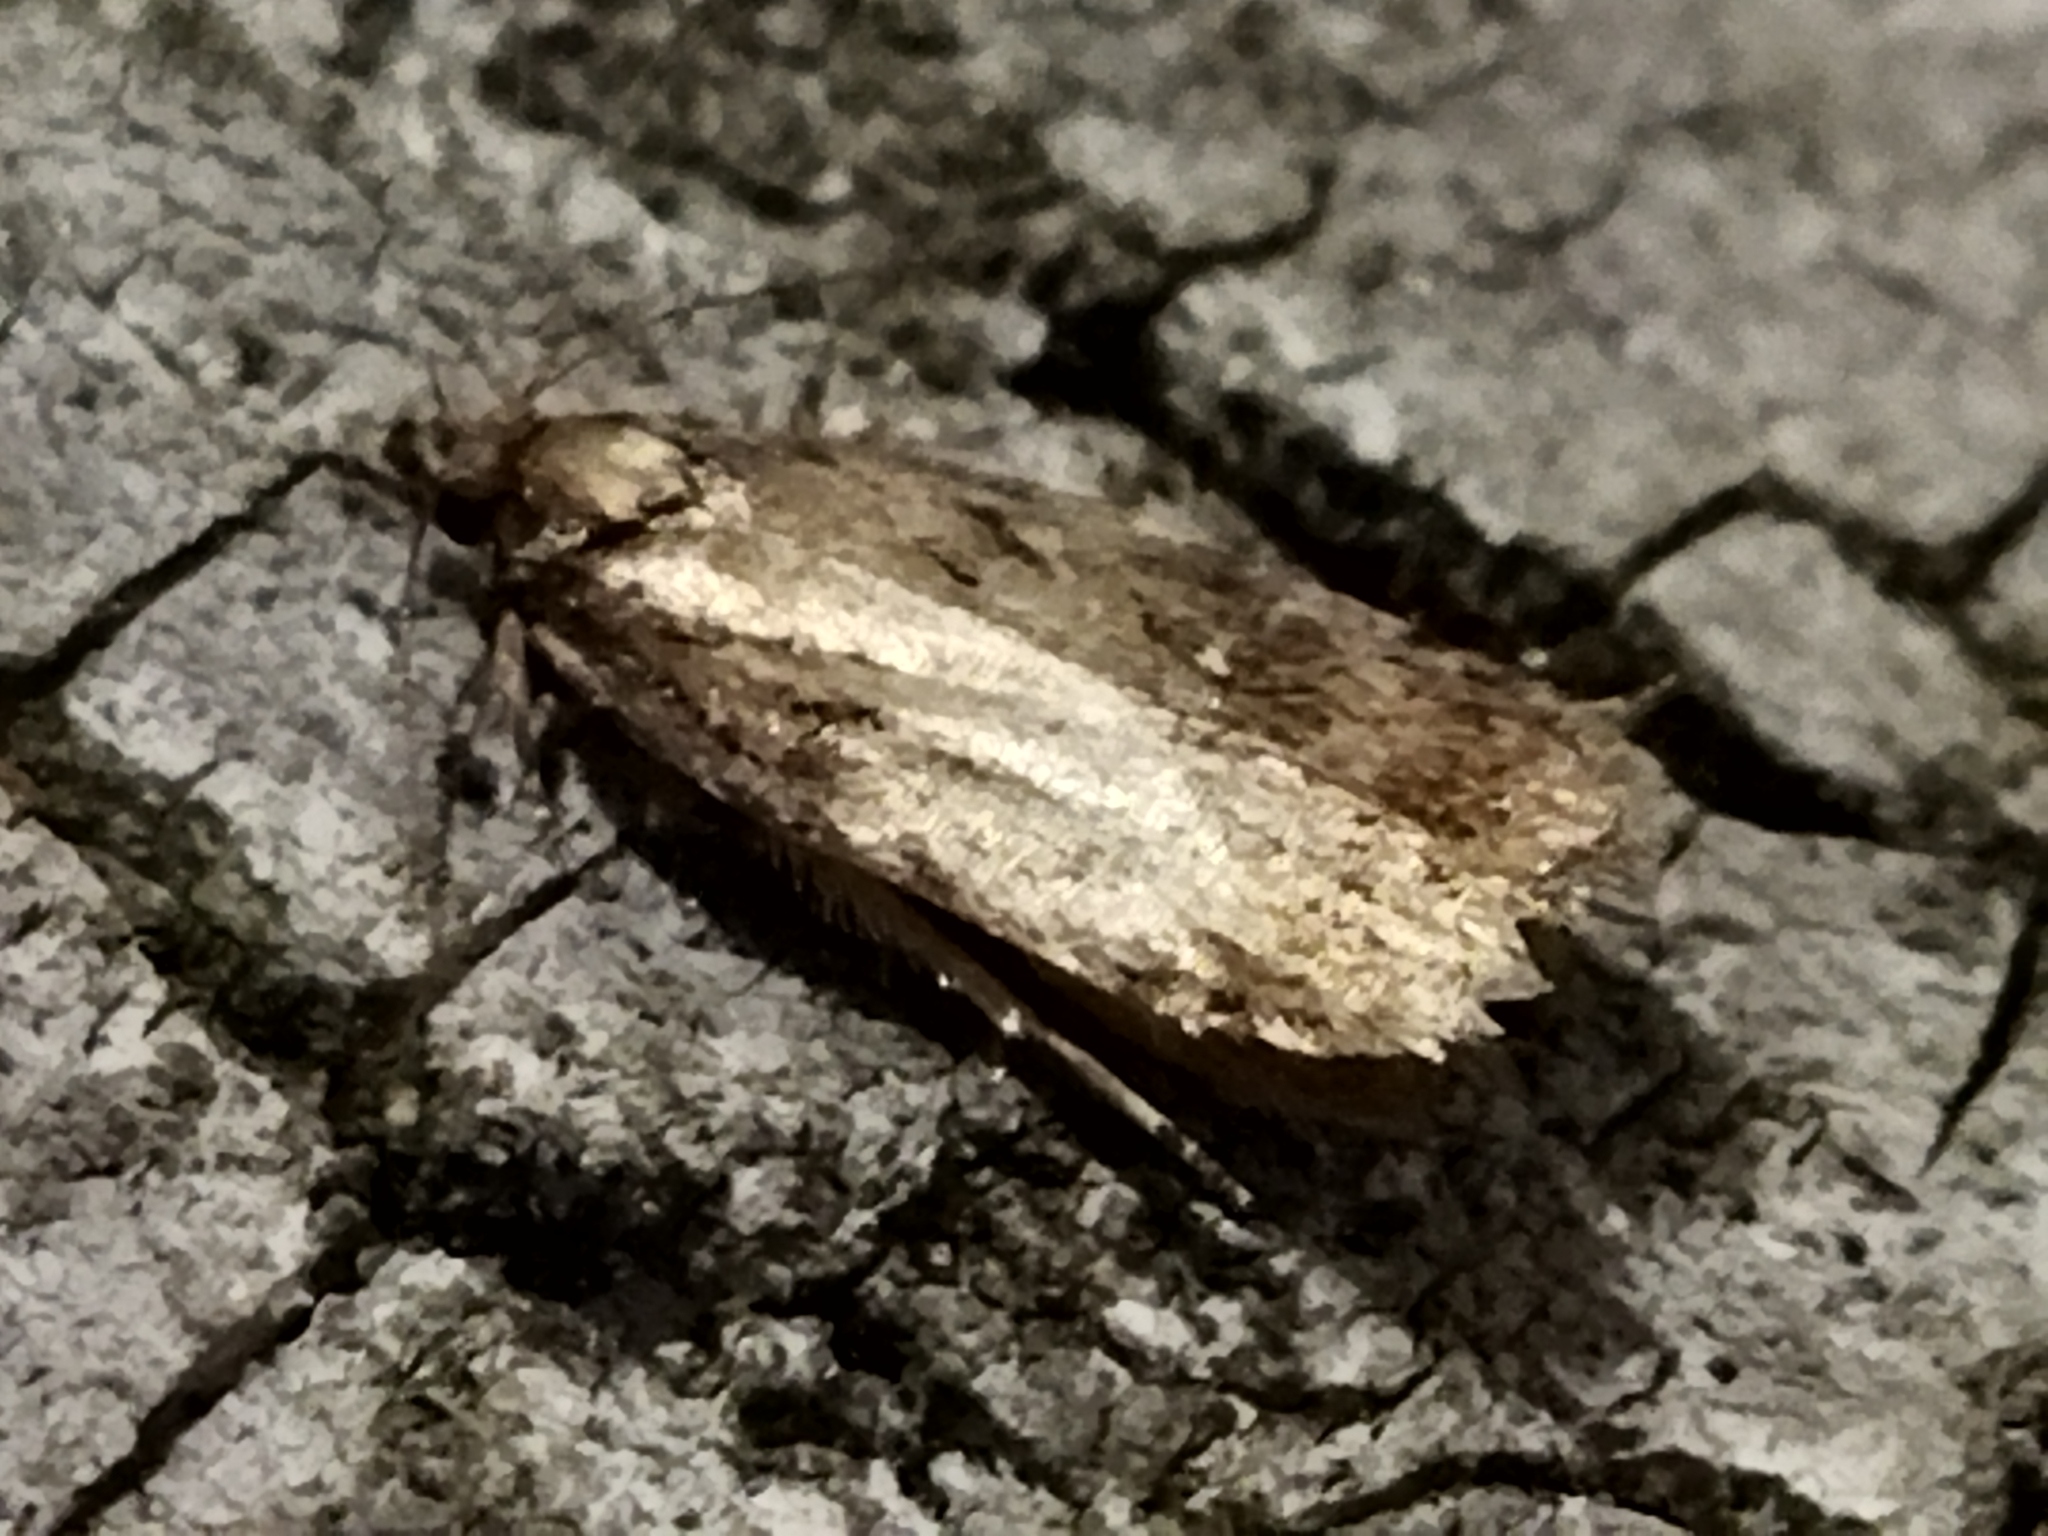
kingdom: Animalia
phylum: Arthropoda
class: Insecta
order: Lepidoptera
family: Depressariidae
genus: Depressaria
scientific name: Depressaria albipunctella
